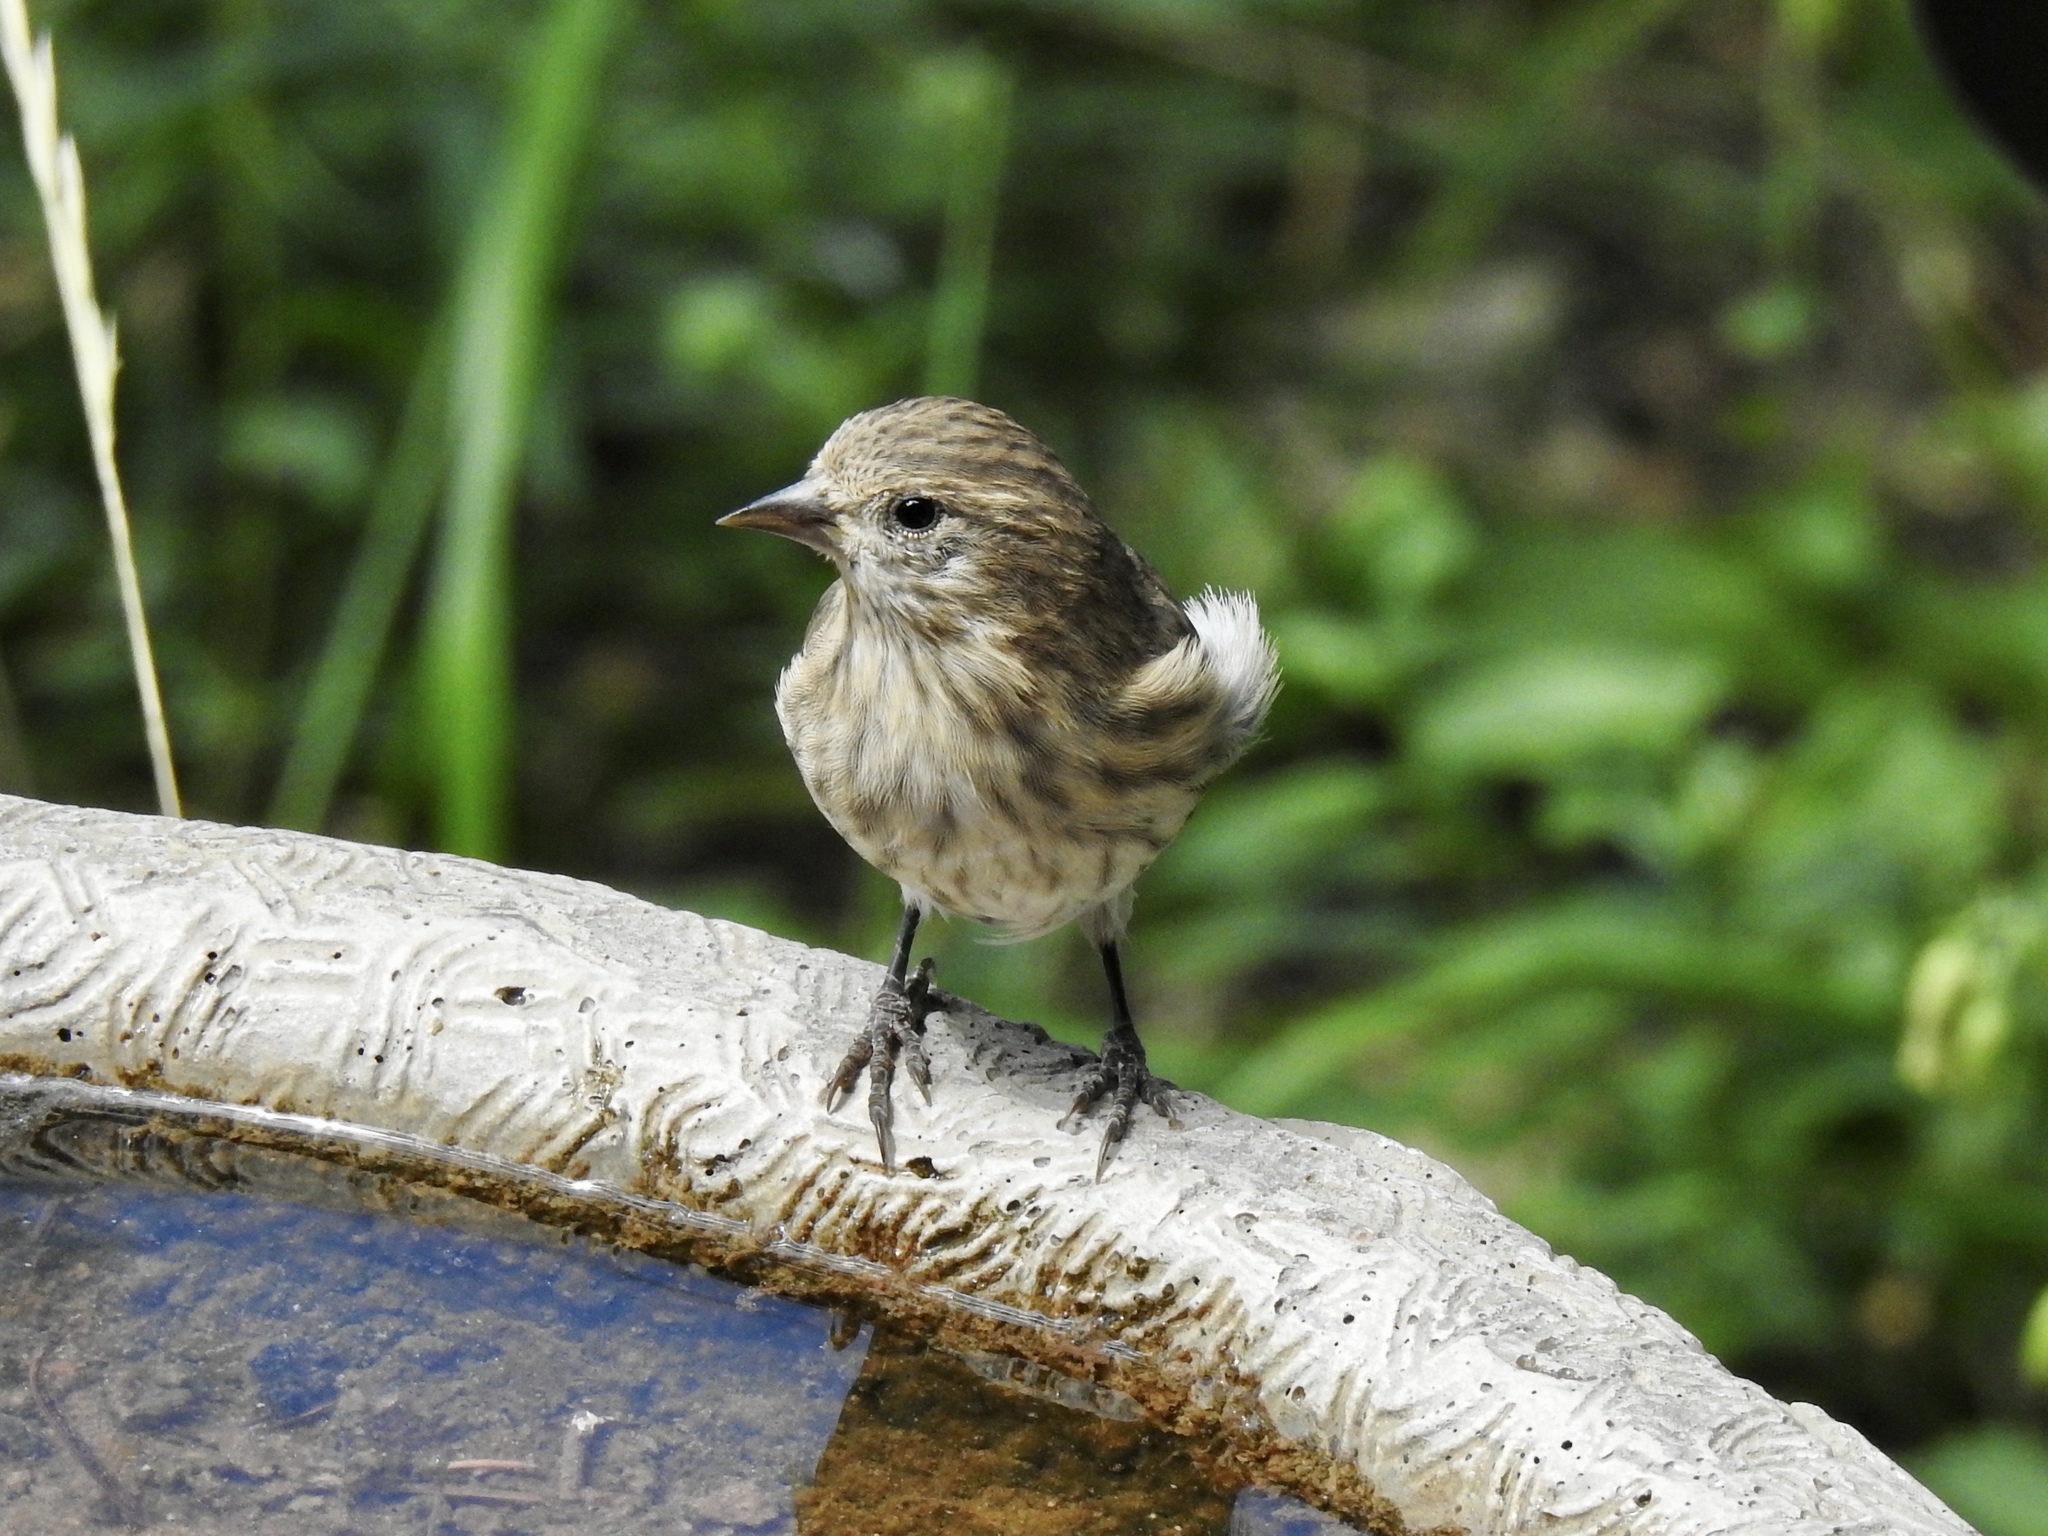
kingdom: Animalia
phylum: Chordata
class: Aves
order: Passeriformes
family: Fringillidae
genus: Spinus
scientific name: Spinus pinus
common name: Pine siskin
